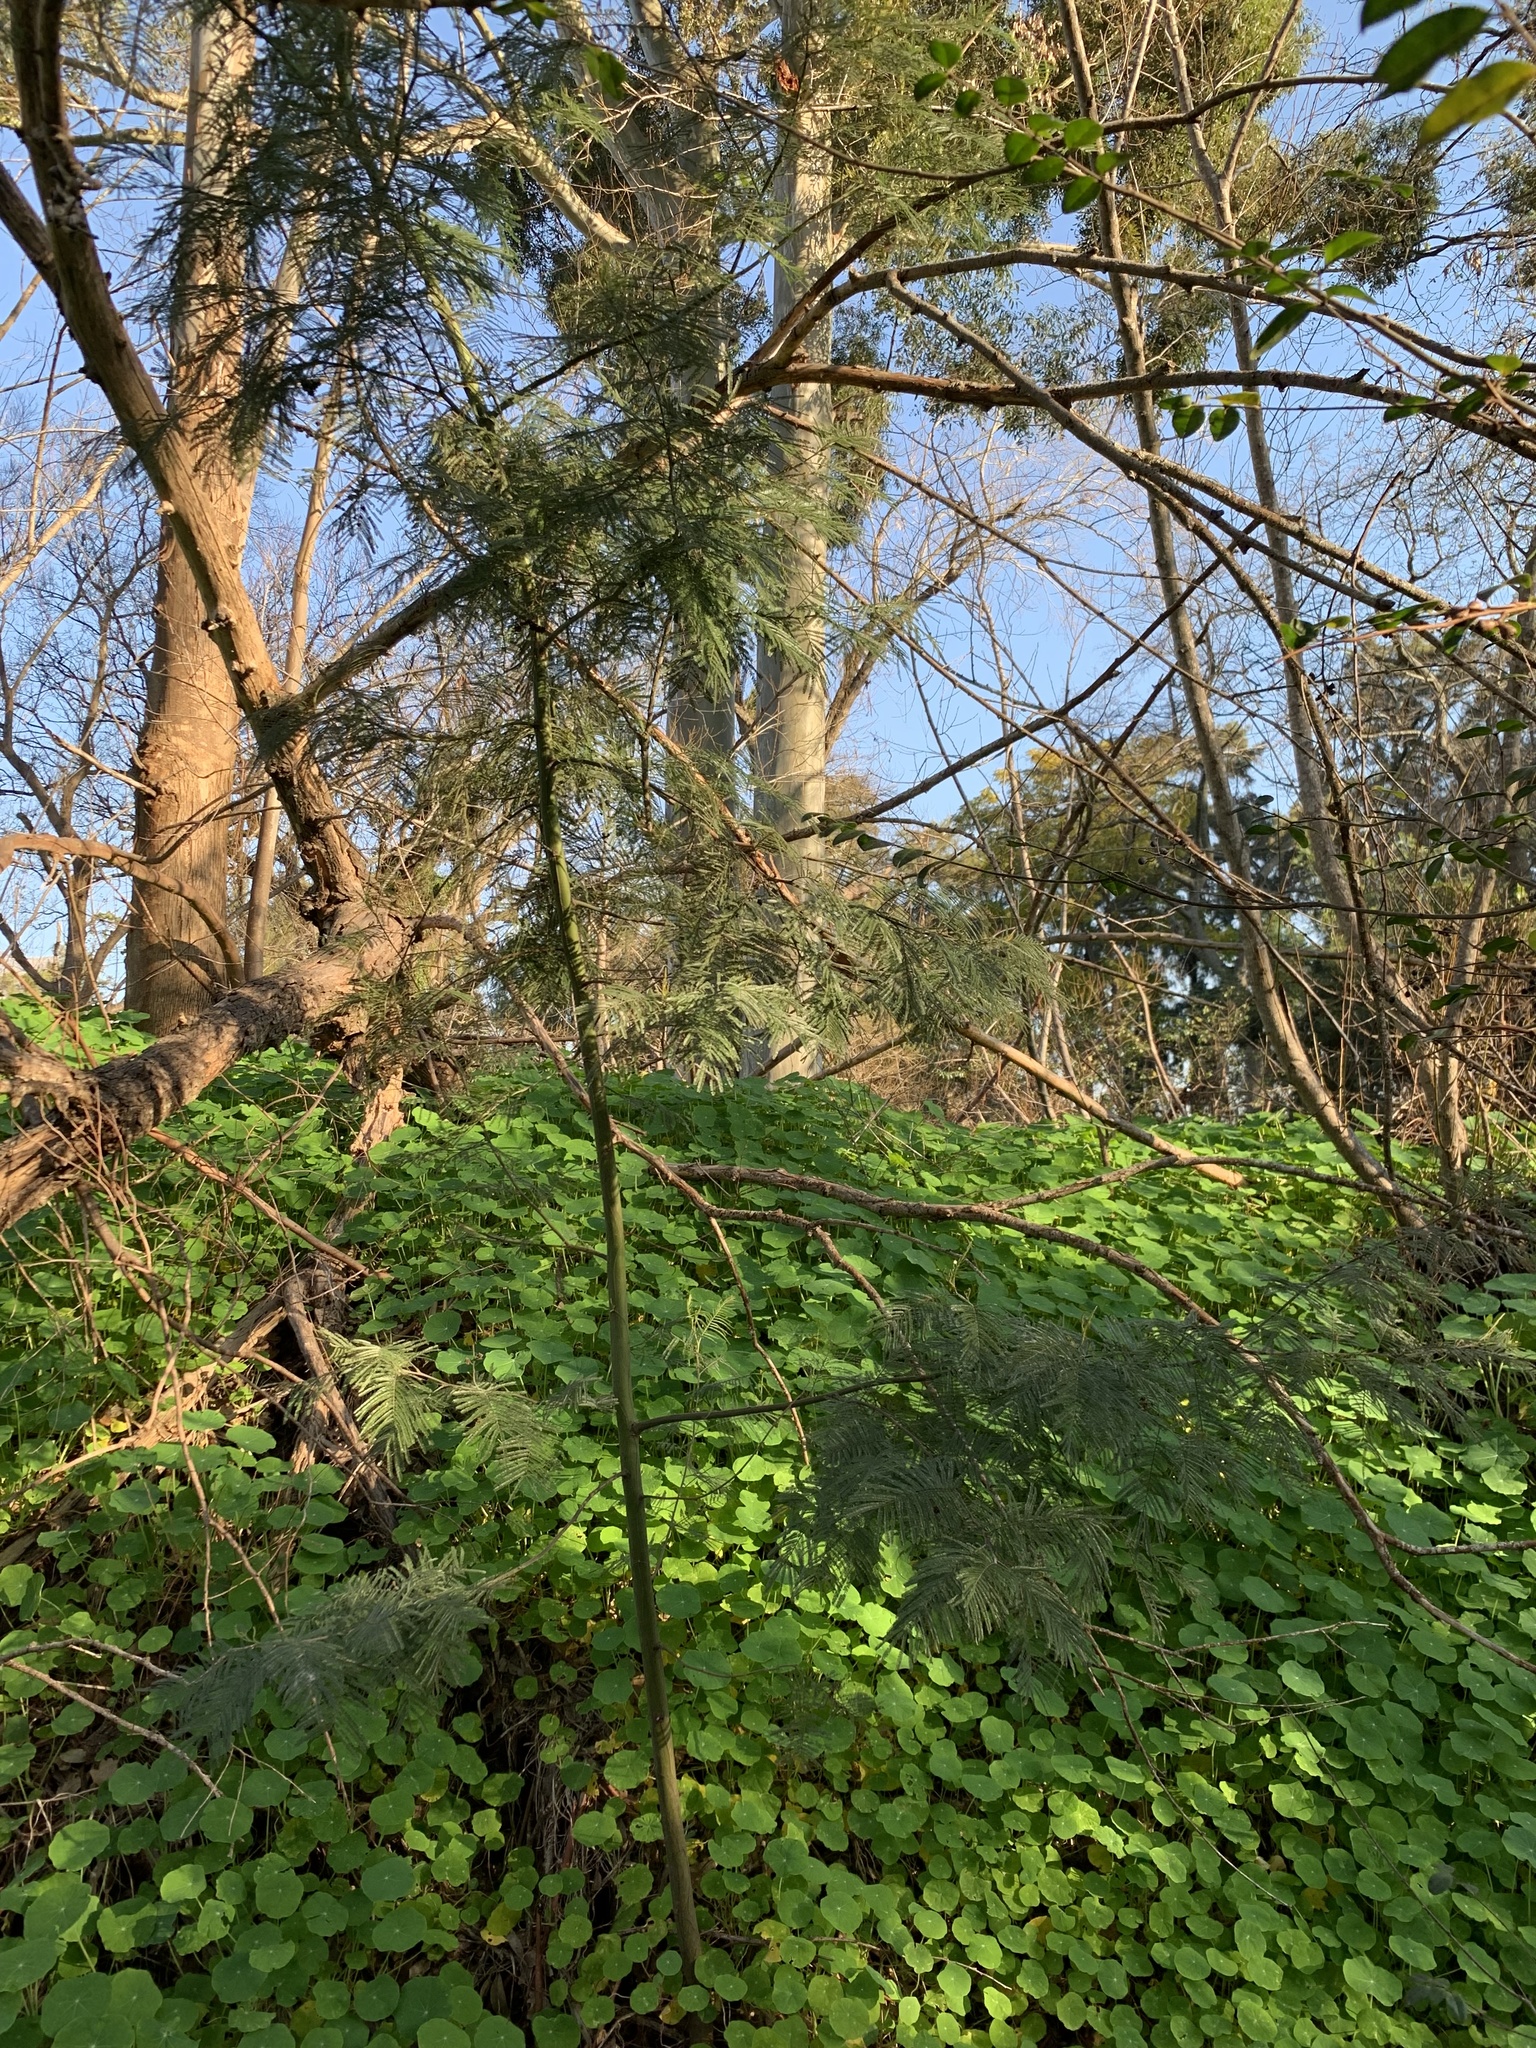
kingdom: Plantae
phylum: Tracheophyta
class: Magnoliopsida
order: Fabales
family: Fabaceae
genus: Acacia
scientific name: Acacia mearnsii
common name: Black wattle
